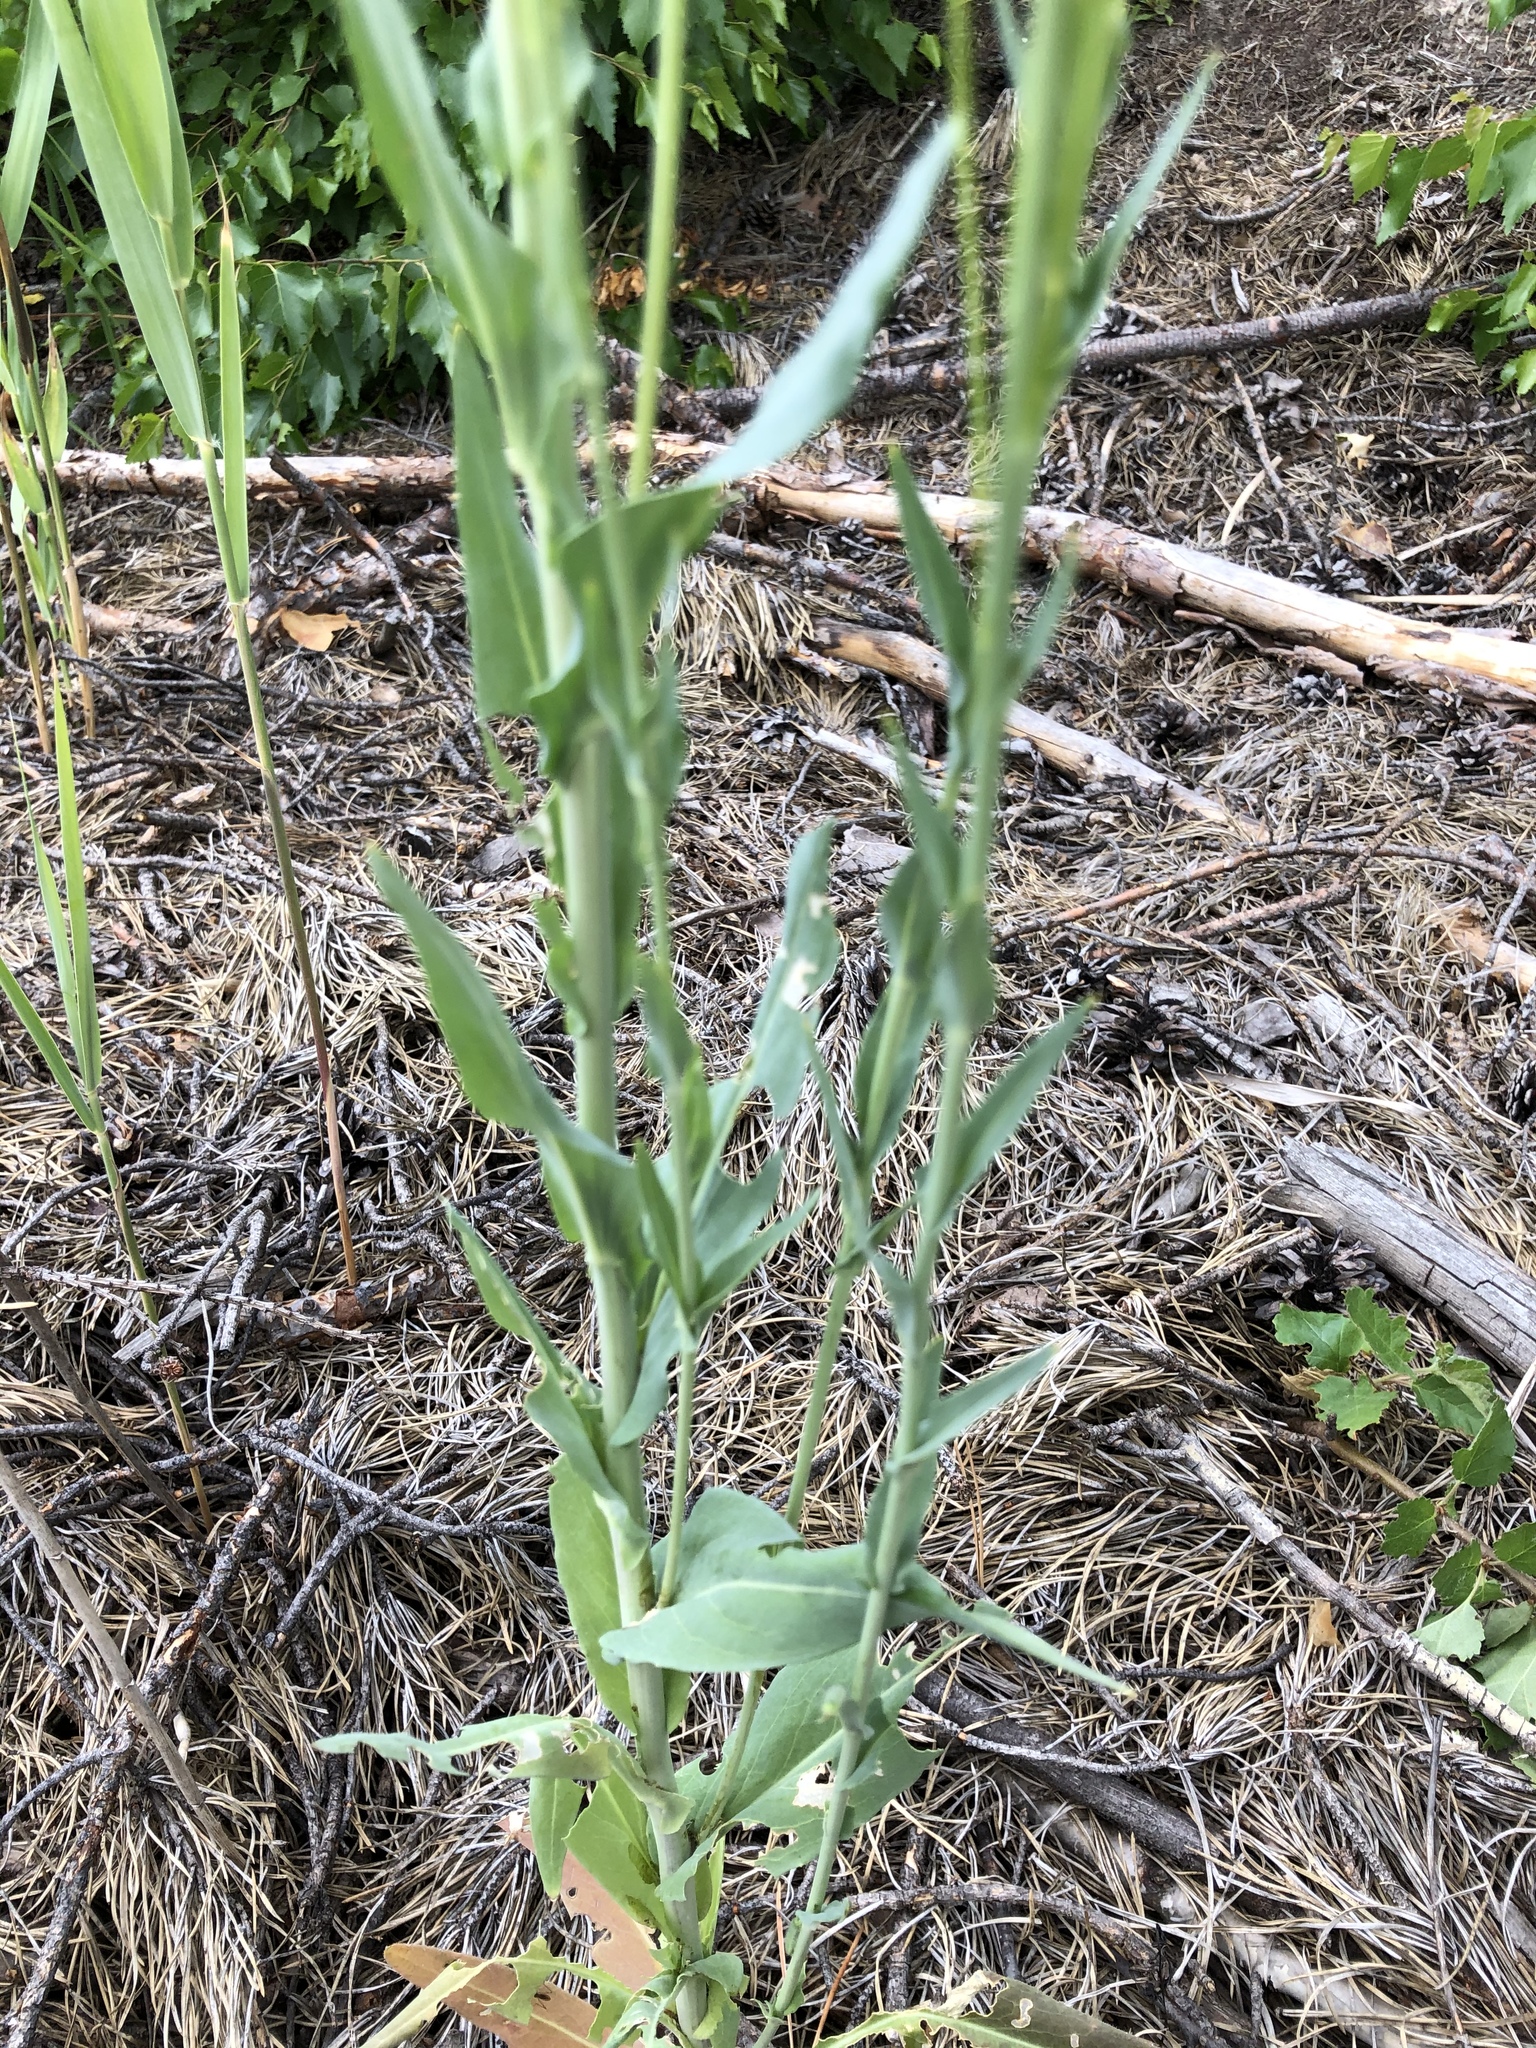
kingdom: Plantae
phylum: Tracheophyta
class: Magnoliopsida
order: Brassicales
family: Brassicaceae
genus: Turritis
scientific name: Turritis glabra
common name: Tower rockcress
